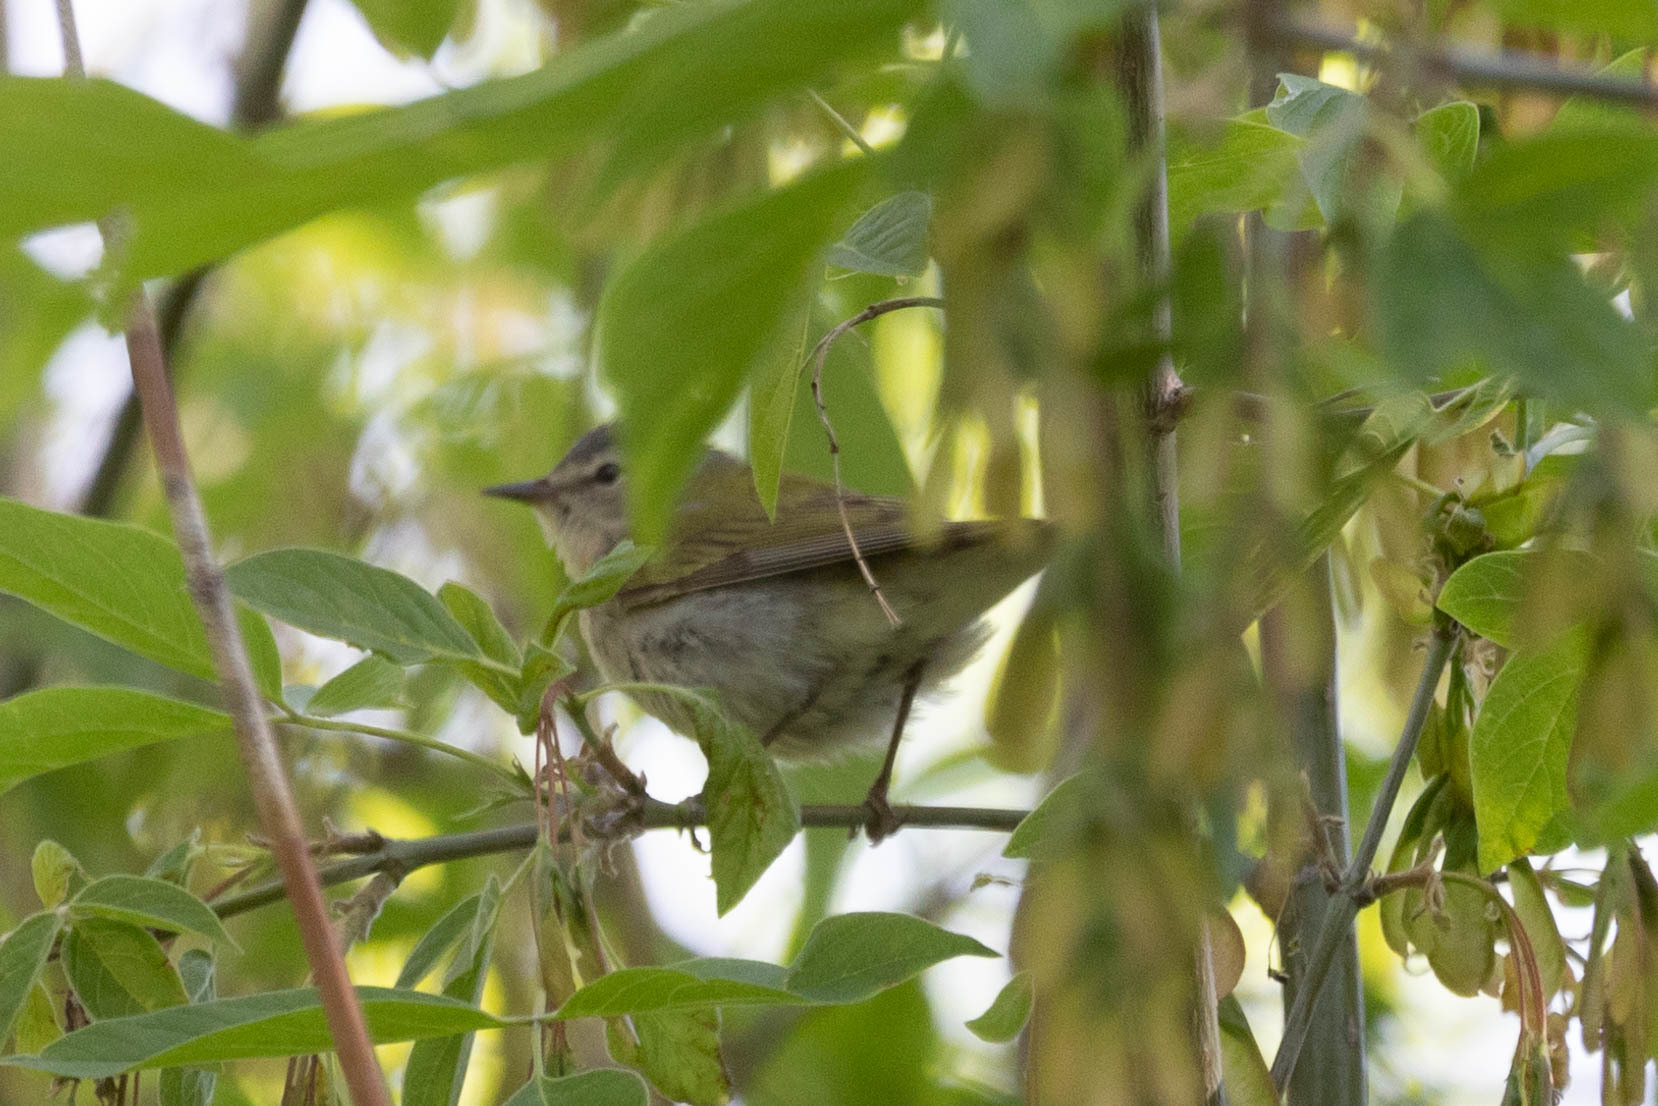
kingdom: Animalia
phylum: Chordata
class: Aves
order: Passeriformes
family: Parulidae
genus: Leiothlypis
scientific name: Leiothlypis peregrina
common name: Tennessee warbler
